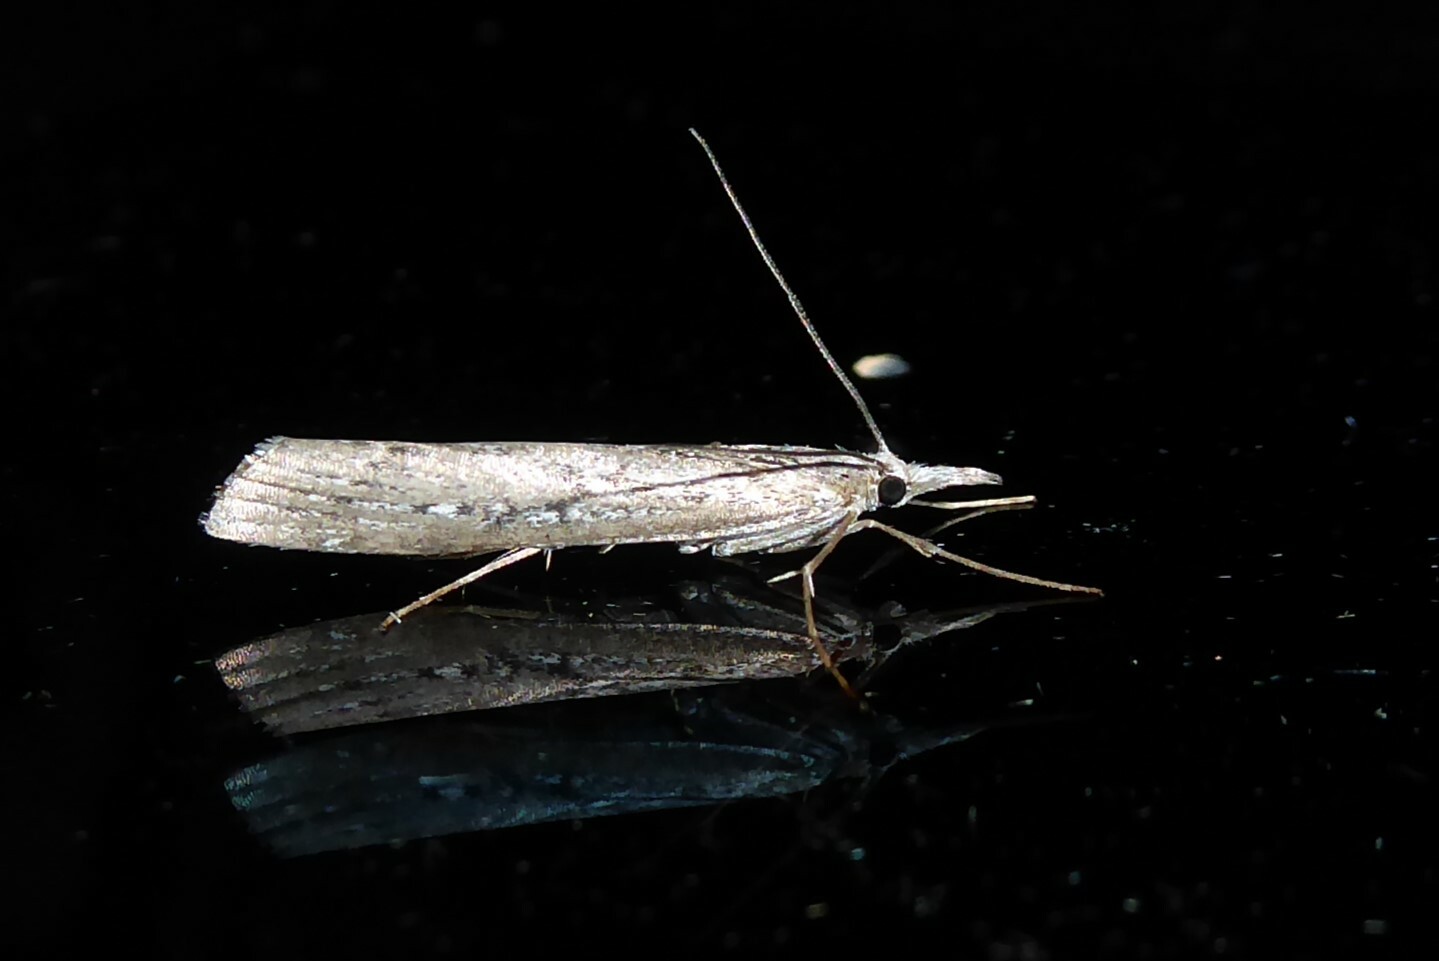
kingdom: Animalia
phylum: Arthropoda
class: Insecta
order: Lepidoptera
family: Crambidae
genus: Orocrambus
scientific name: Orocrambus cyclopicus
